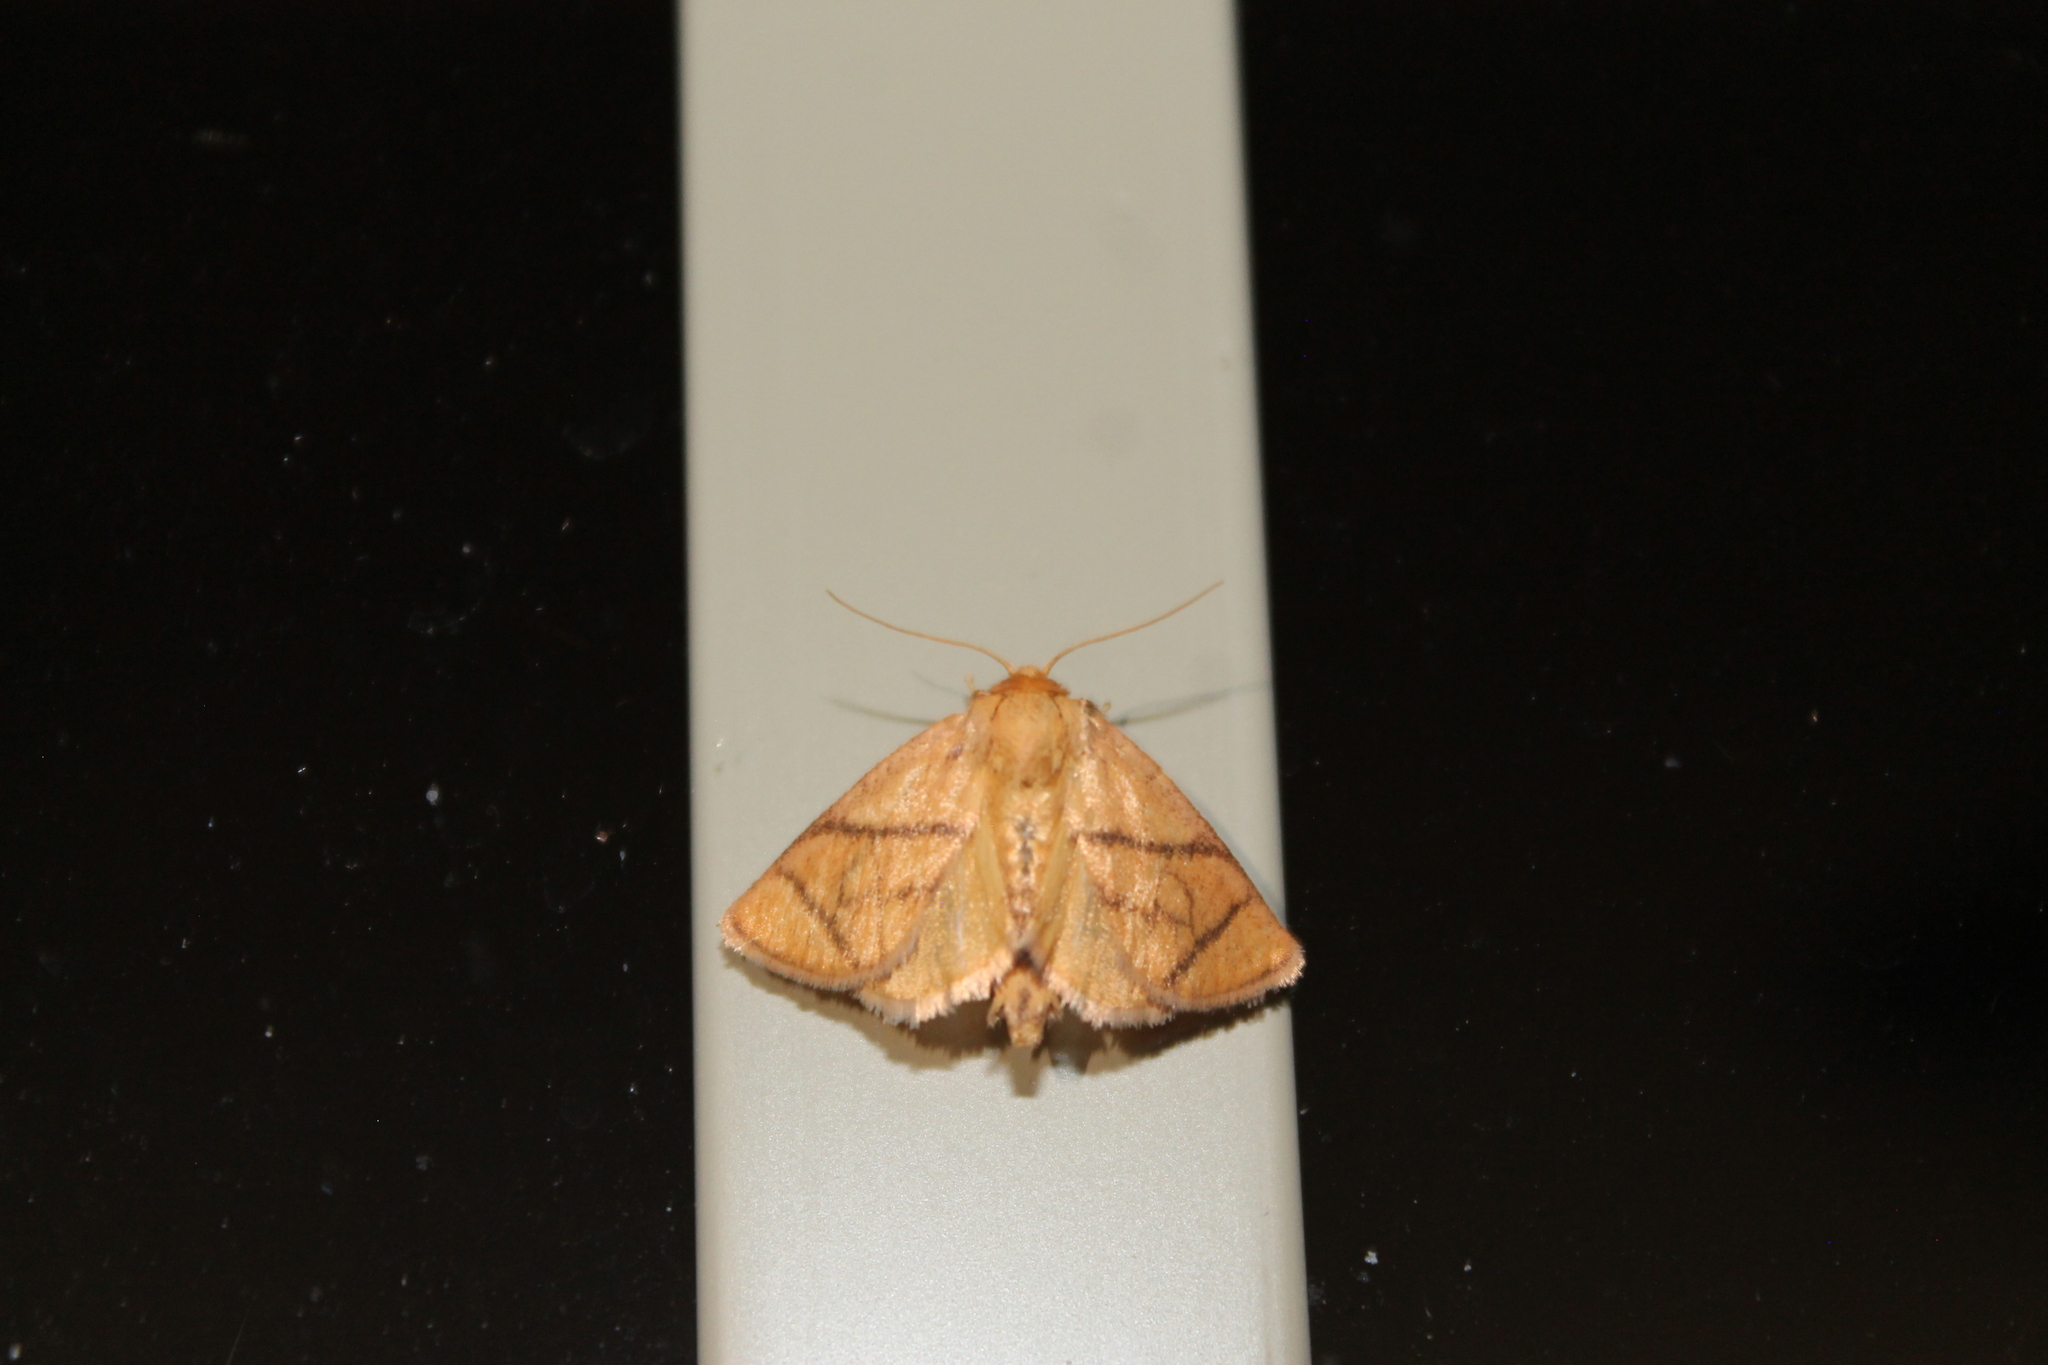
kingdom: Animalia
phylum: Arthropoda
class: Insecta
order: Lepidoptera
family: Limacodidae
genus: Apoda
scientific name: Apoda y-inversa
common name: Yellow-collared slug moth
